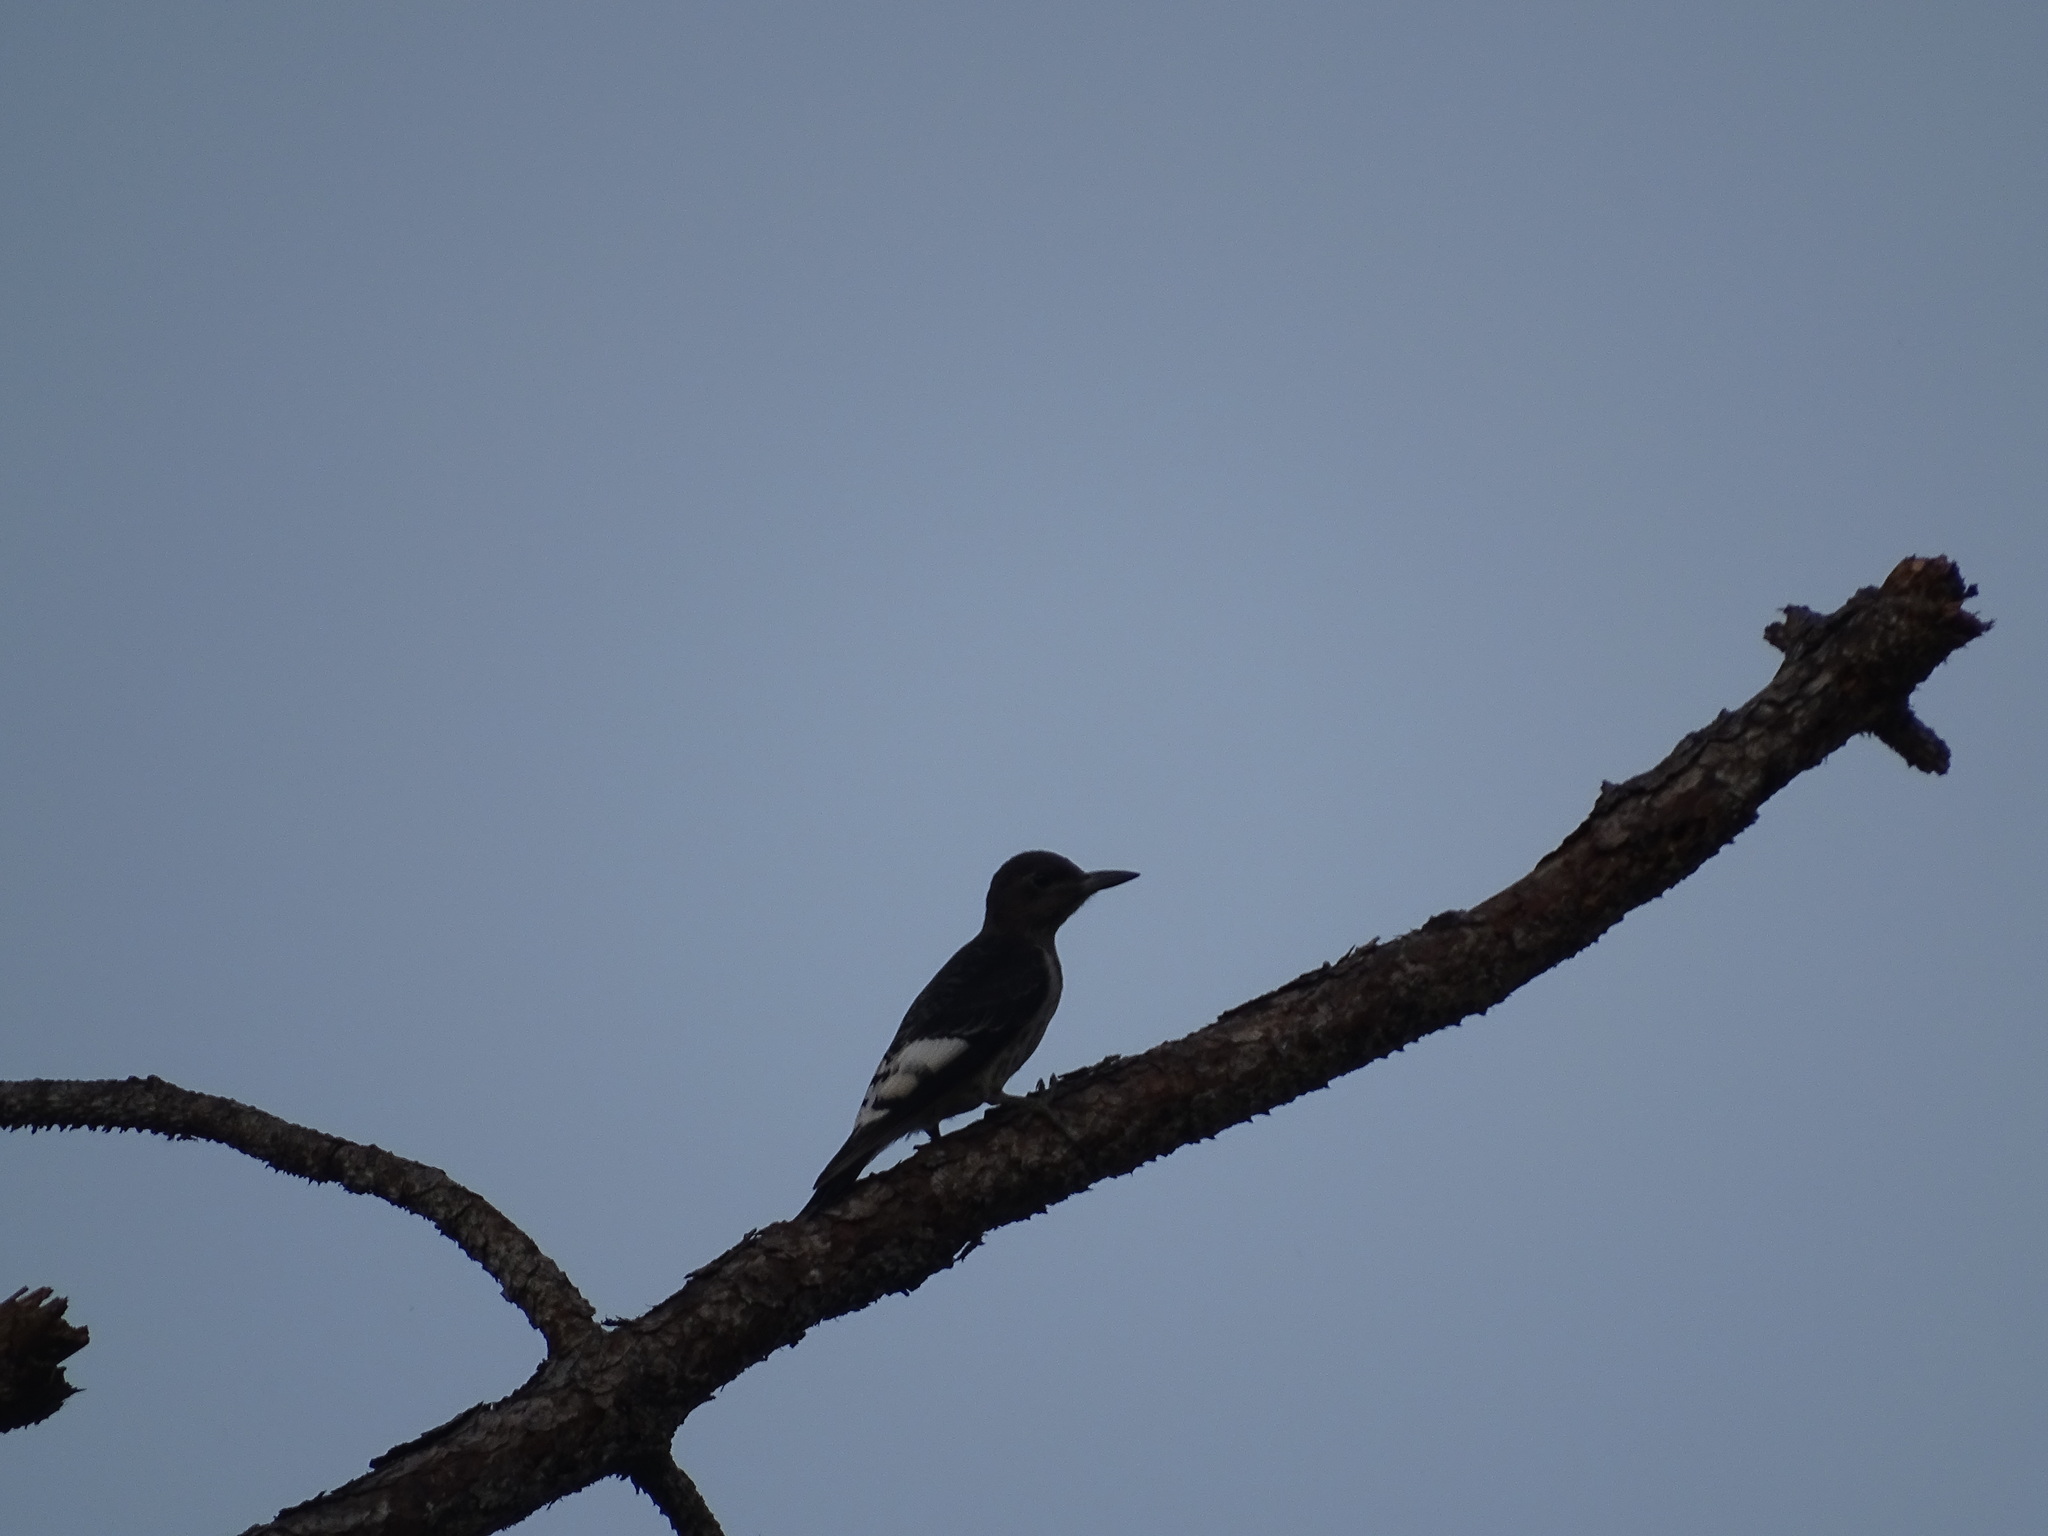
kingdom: Animalia
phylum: Chordata
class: Aves
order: Piciformes
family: Picidae
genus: Melanerpes
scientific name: Melanerpes erythrocephalus
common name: Red-headed woodpecker
